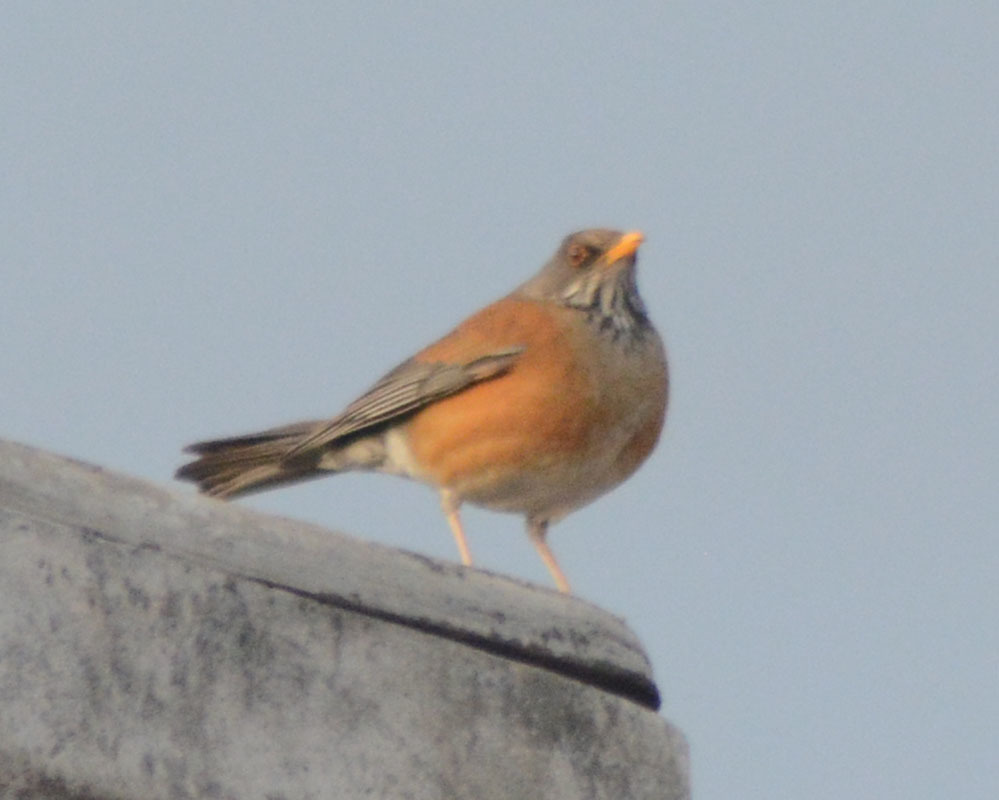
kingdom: Animalia
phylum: Chordata
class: Aves
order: Passeriformes
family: Turdidae
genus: Turdus
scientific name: Turdus rufopalliatus
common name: Rufous-backed robin
